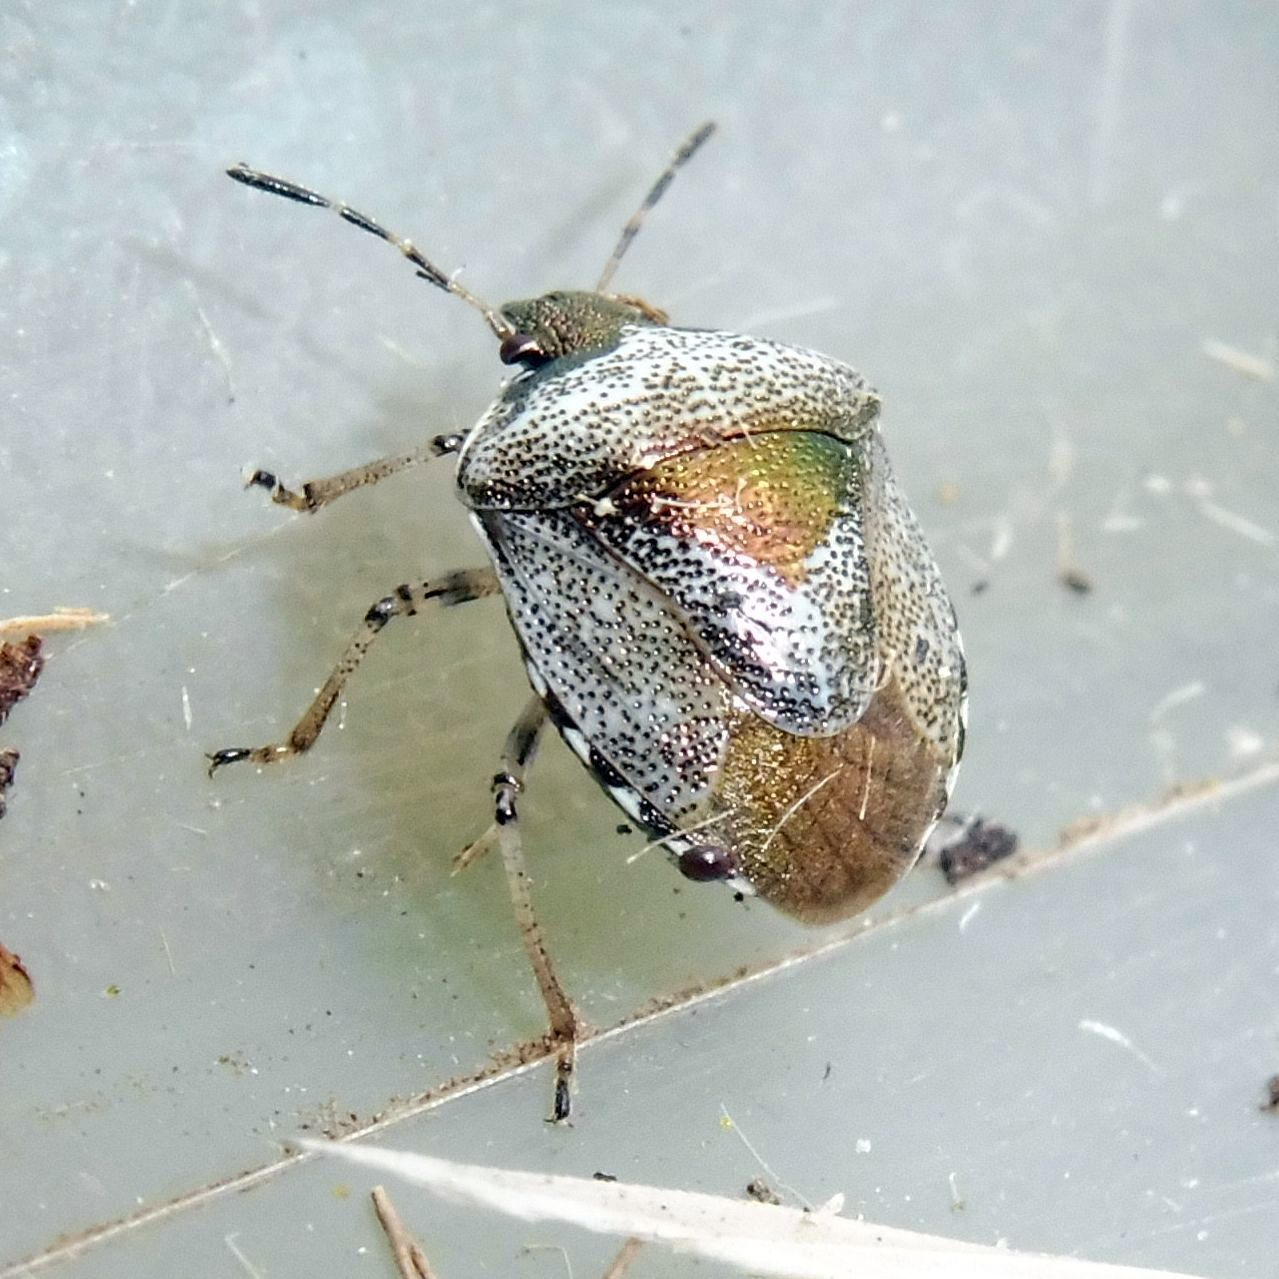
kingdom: Animalia
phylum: Arthropoda
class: Insecta
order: Hemiptera
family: Pentatomidae
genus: Eysarcoris
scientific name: Eysarcoris venustissimus
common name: Woundwort shieldbug
